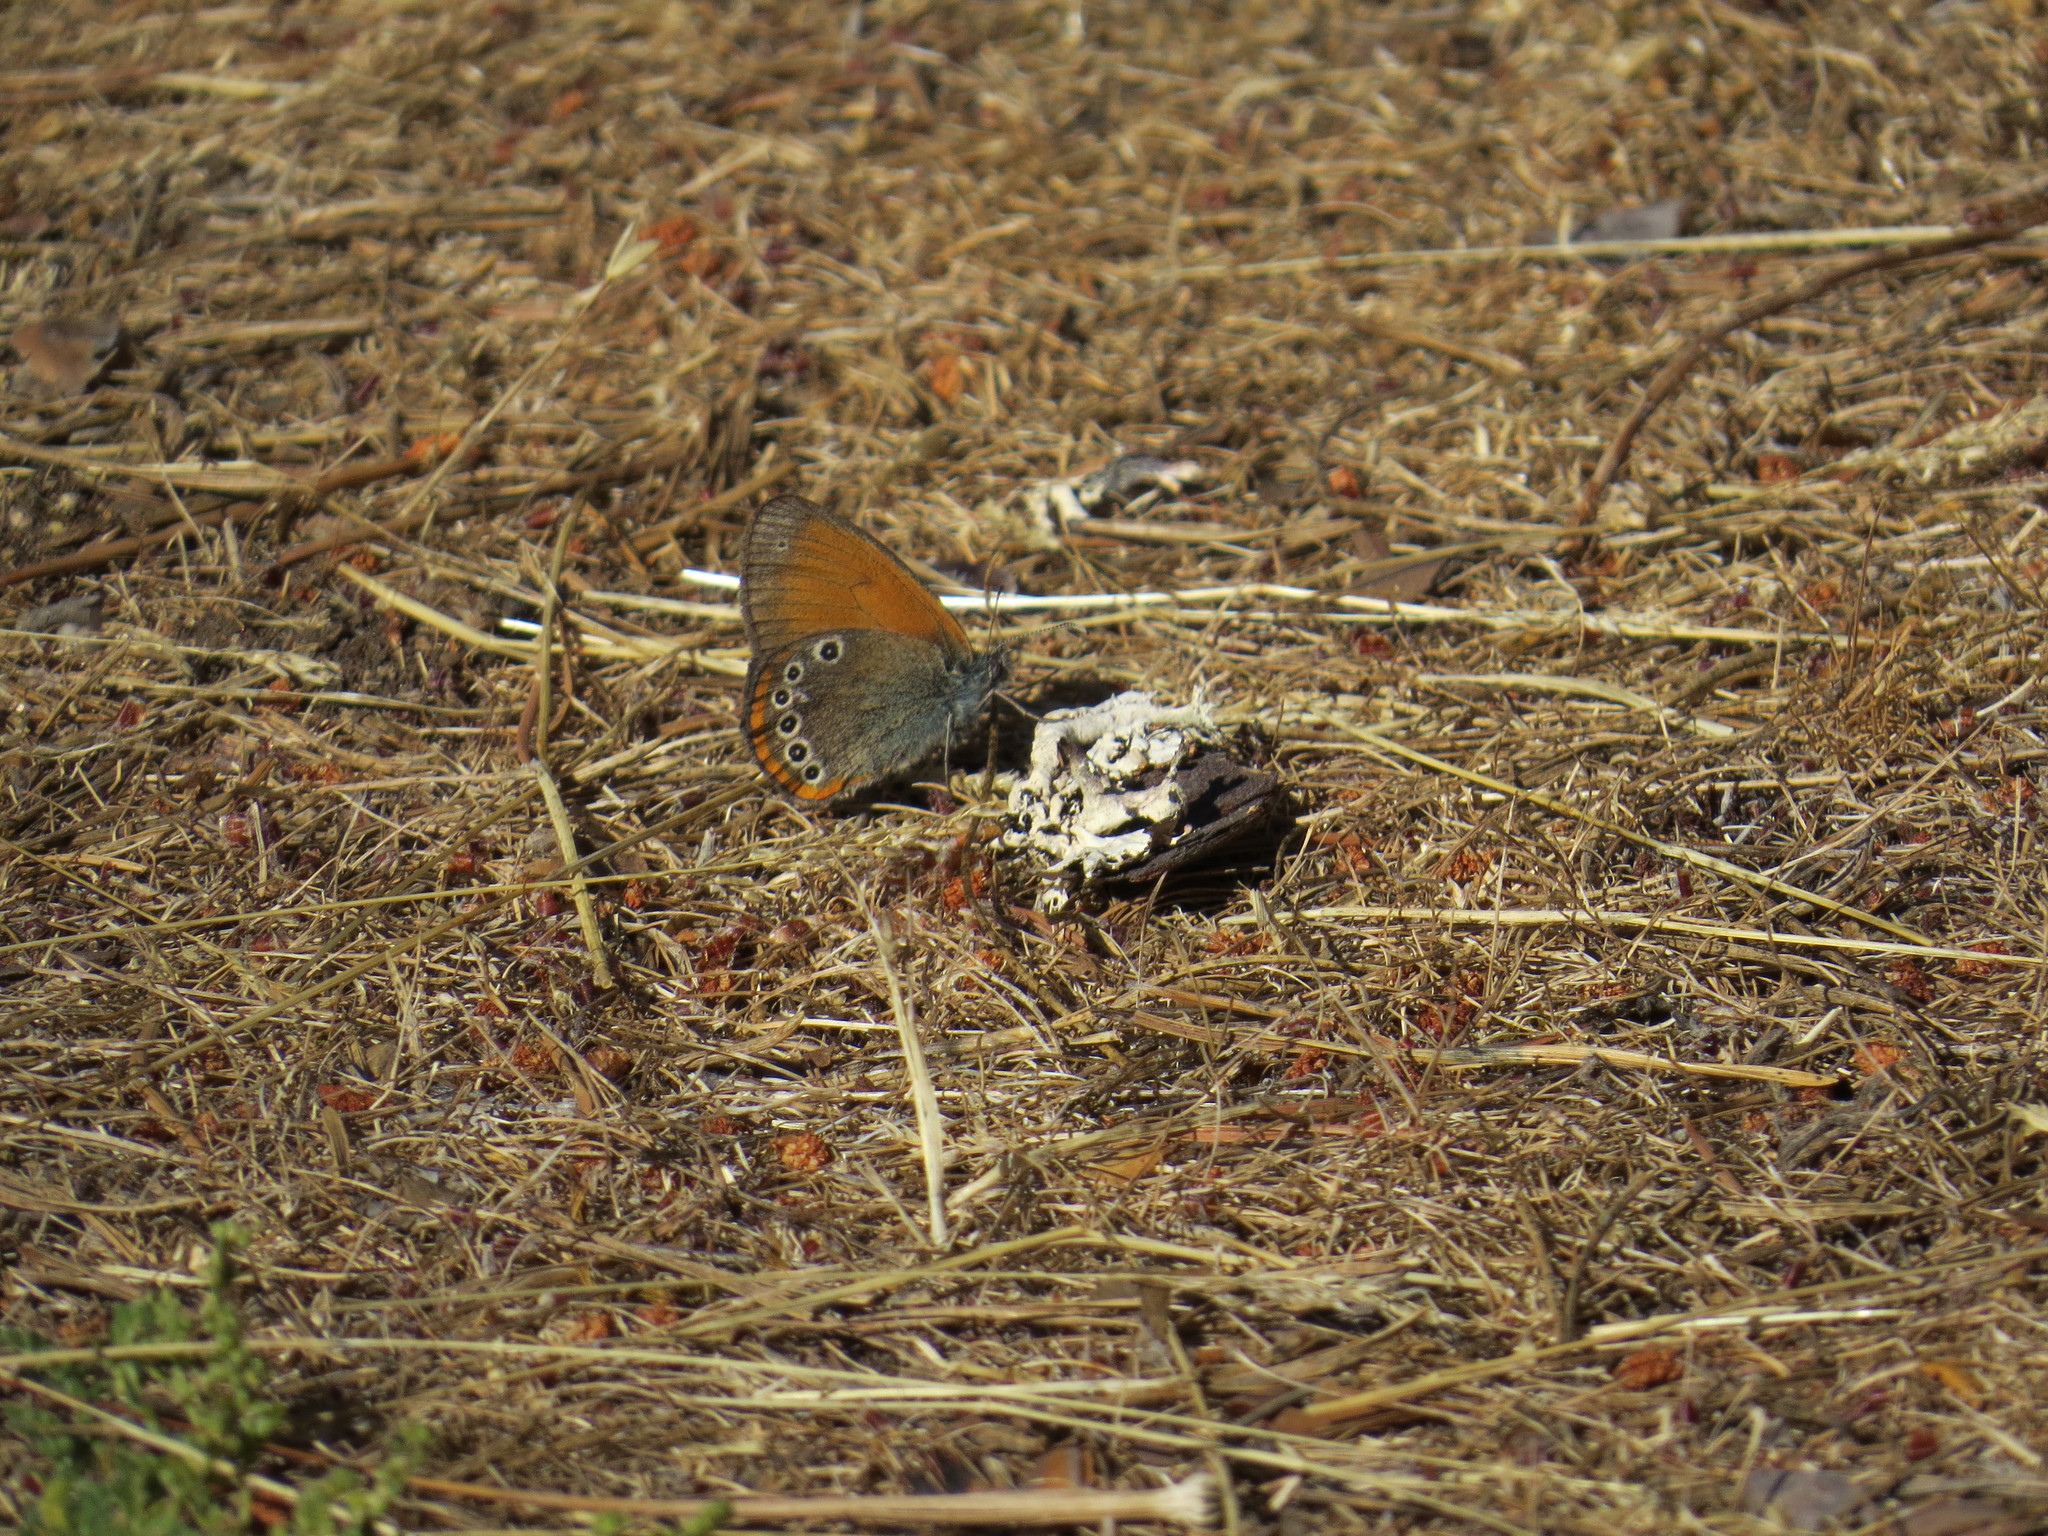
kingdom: Animalia
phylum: Arthropoda
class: Insecta
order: Lepidoptera
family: Nymphalidae
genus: Coenonympha
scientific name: Coenonympha iphis
